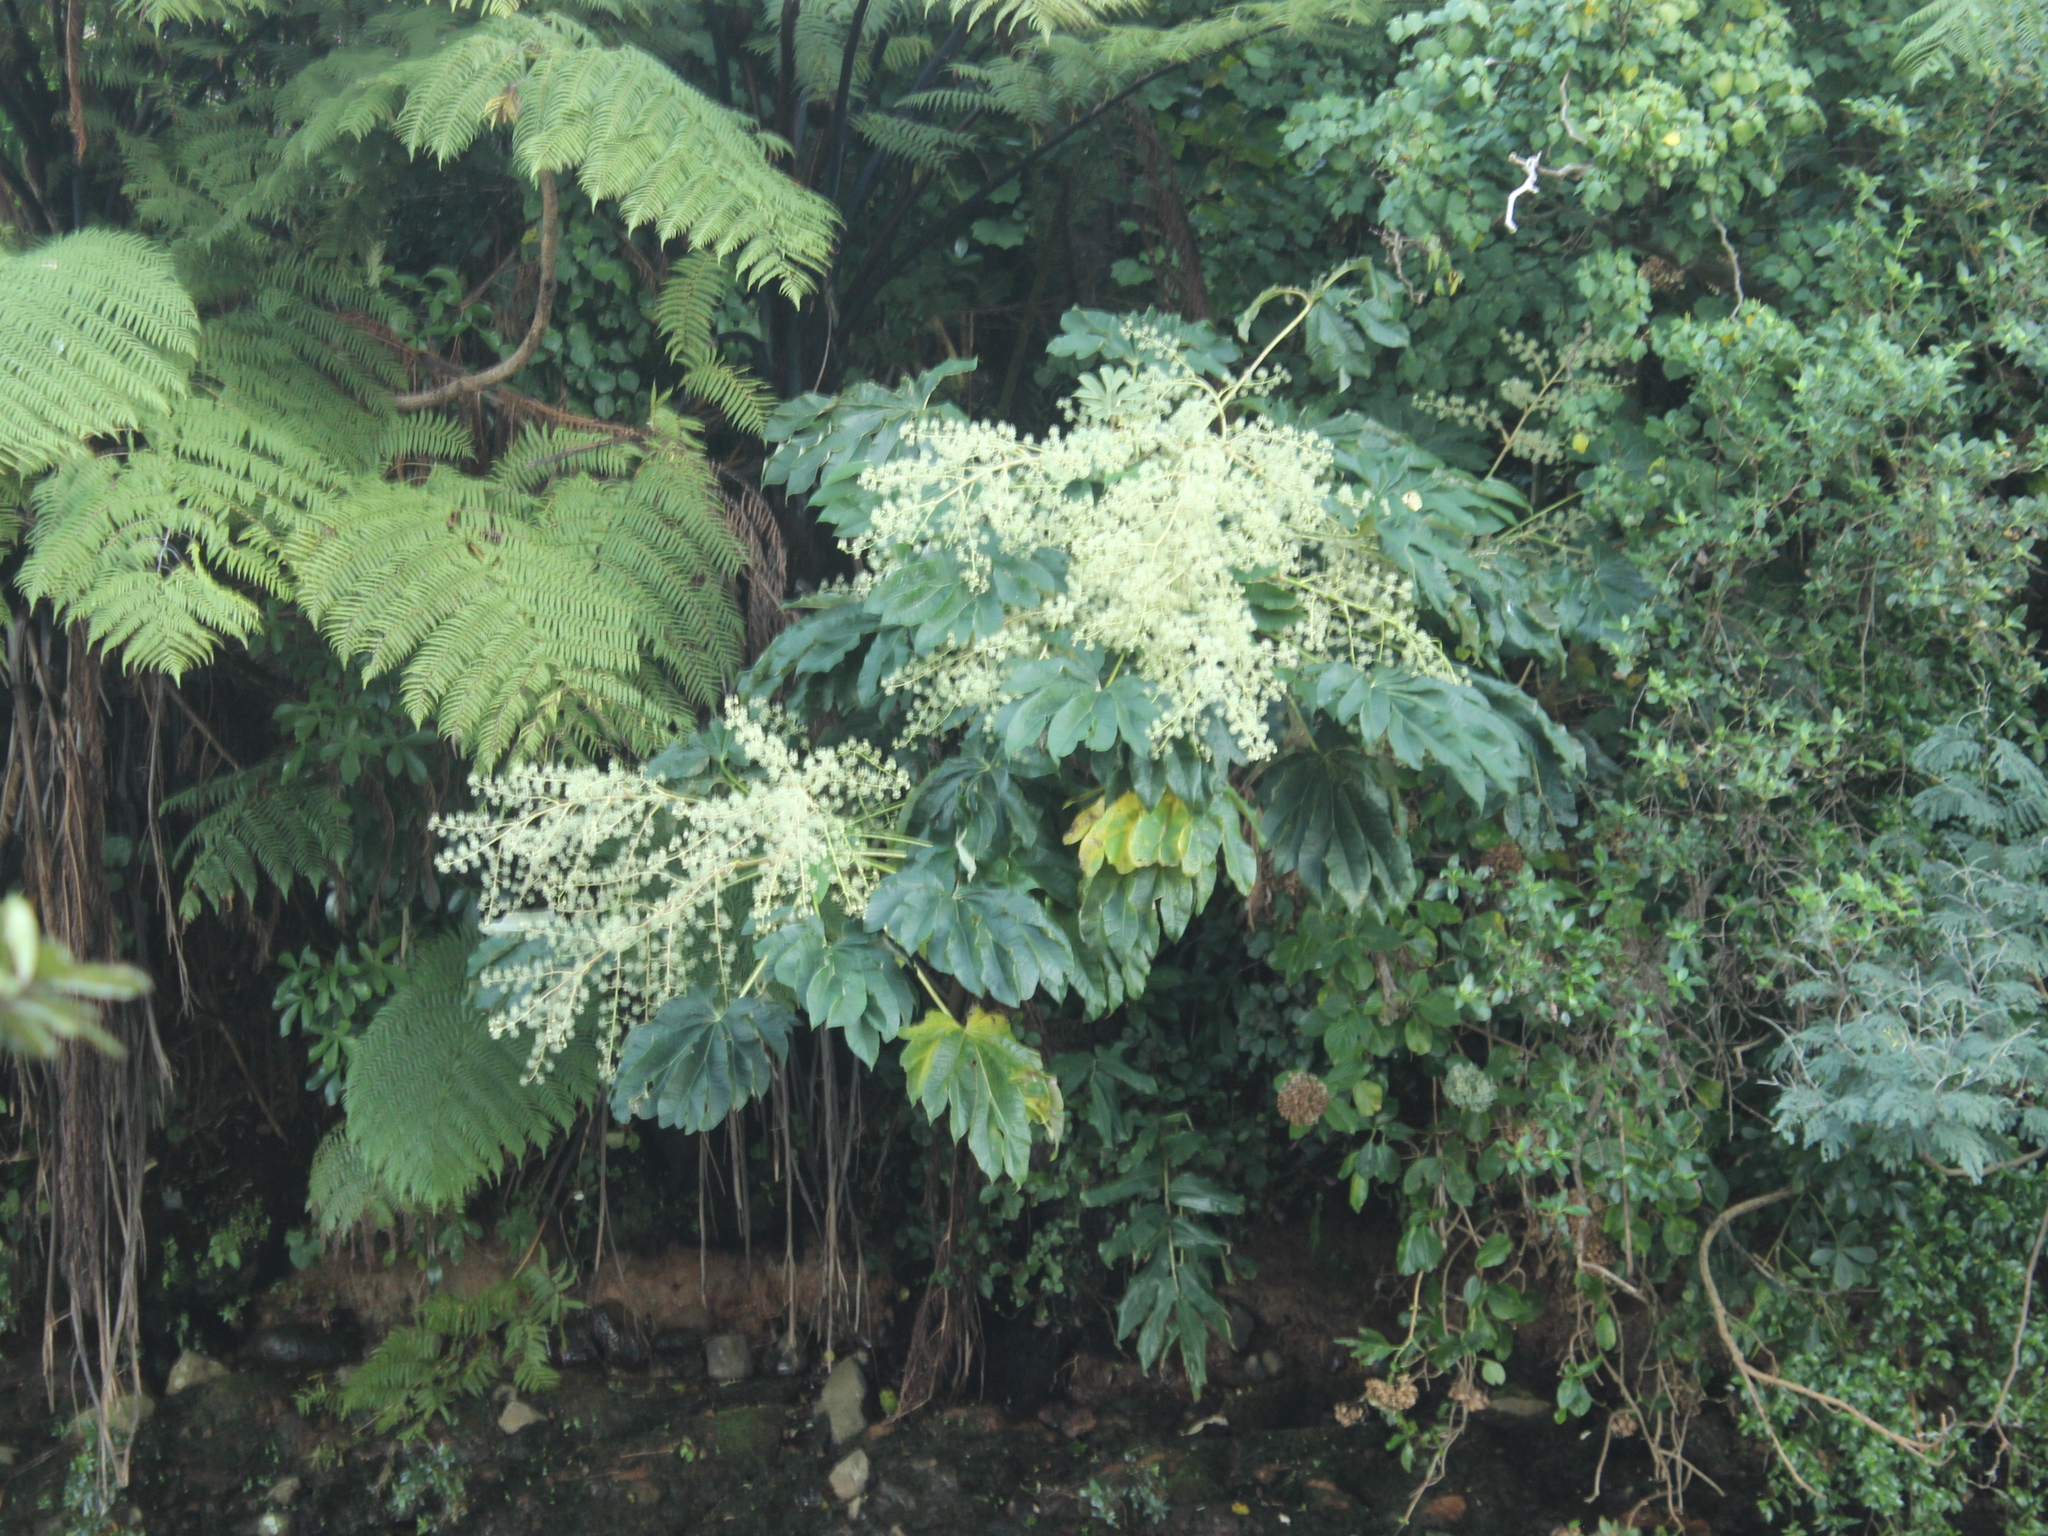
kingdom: Plantae
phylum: Tracheophyta
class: Magnoliopsida
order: Apiales
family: Araliaceae
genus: Tetrapanax
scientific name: Tetrapanax papyrifer
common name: Rice-paper plant
